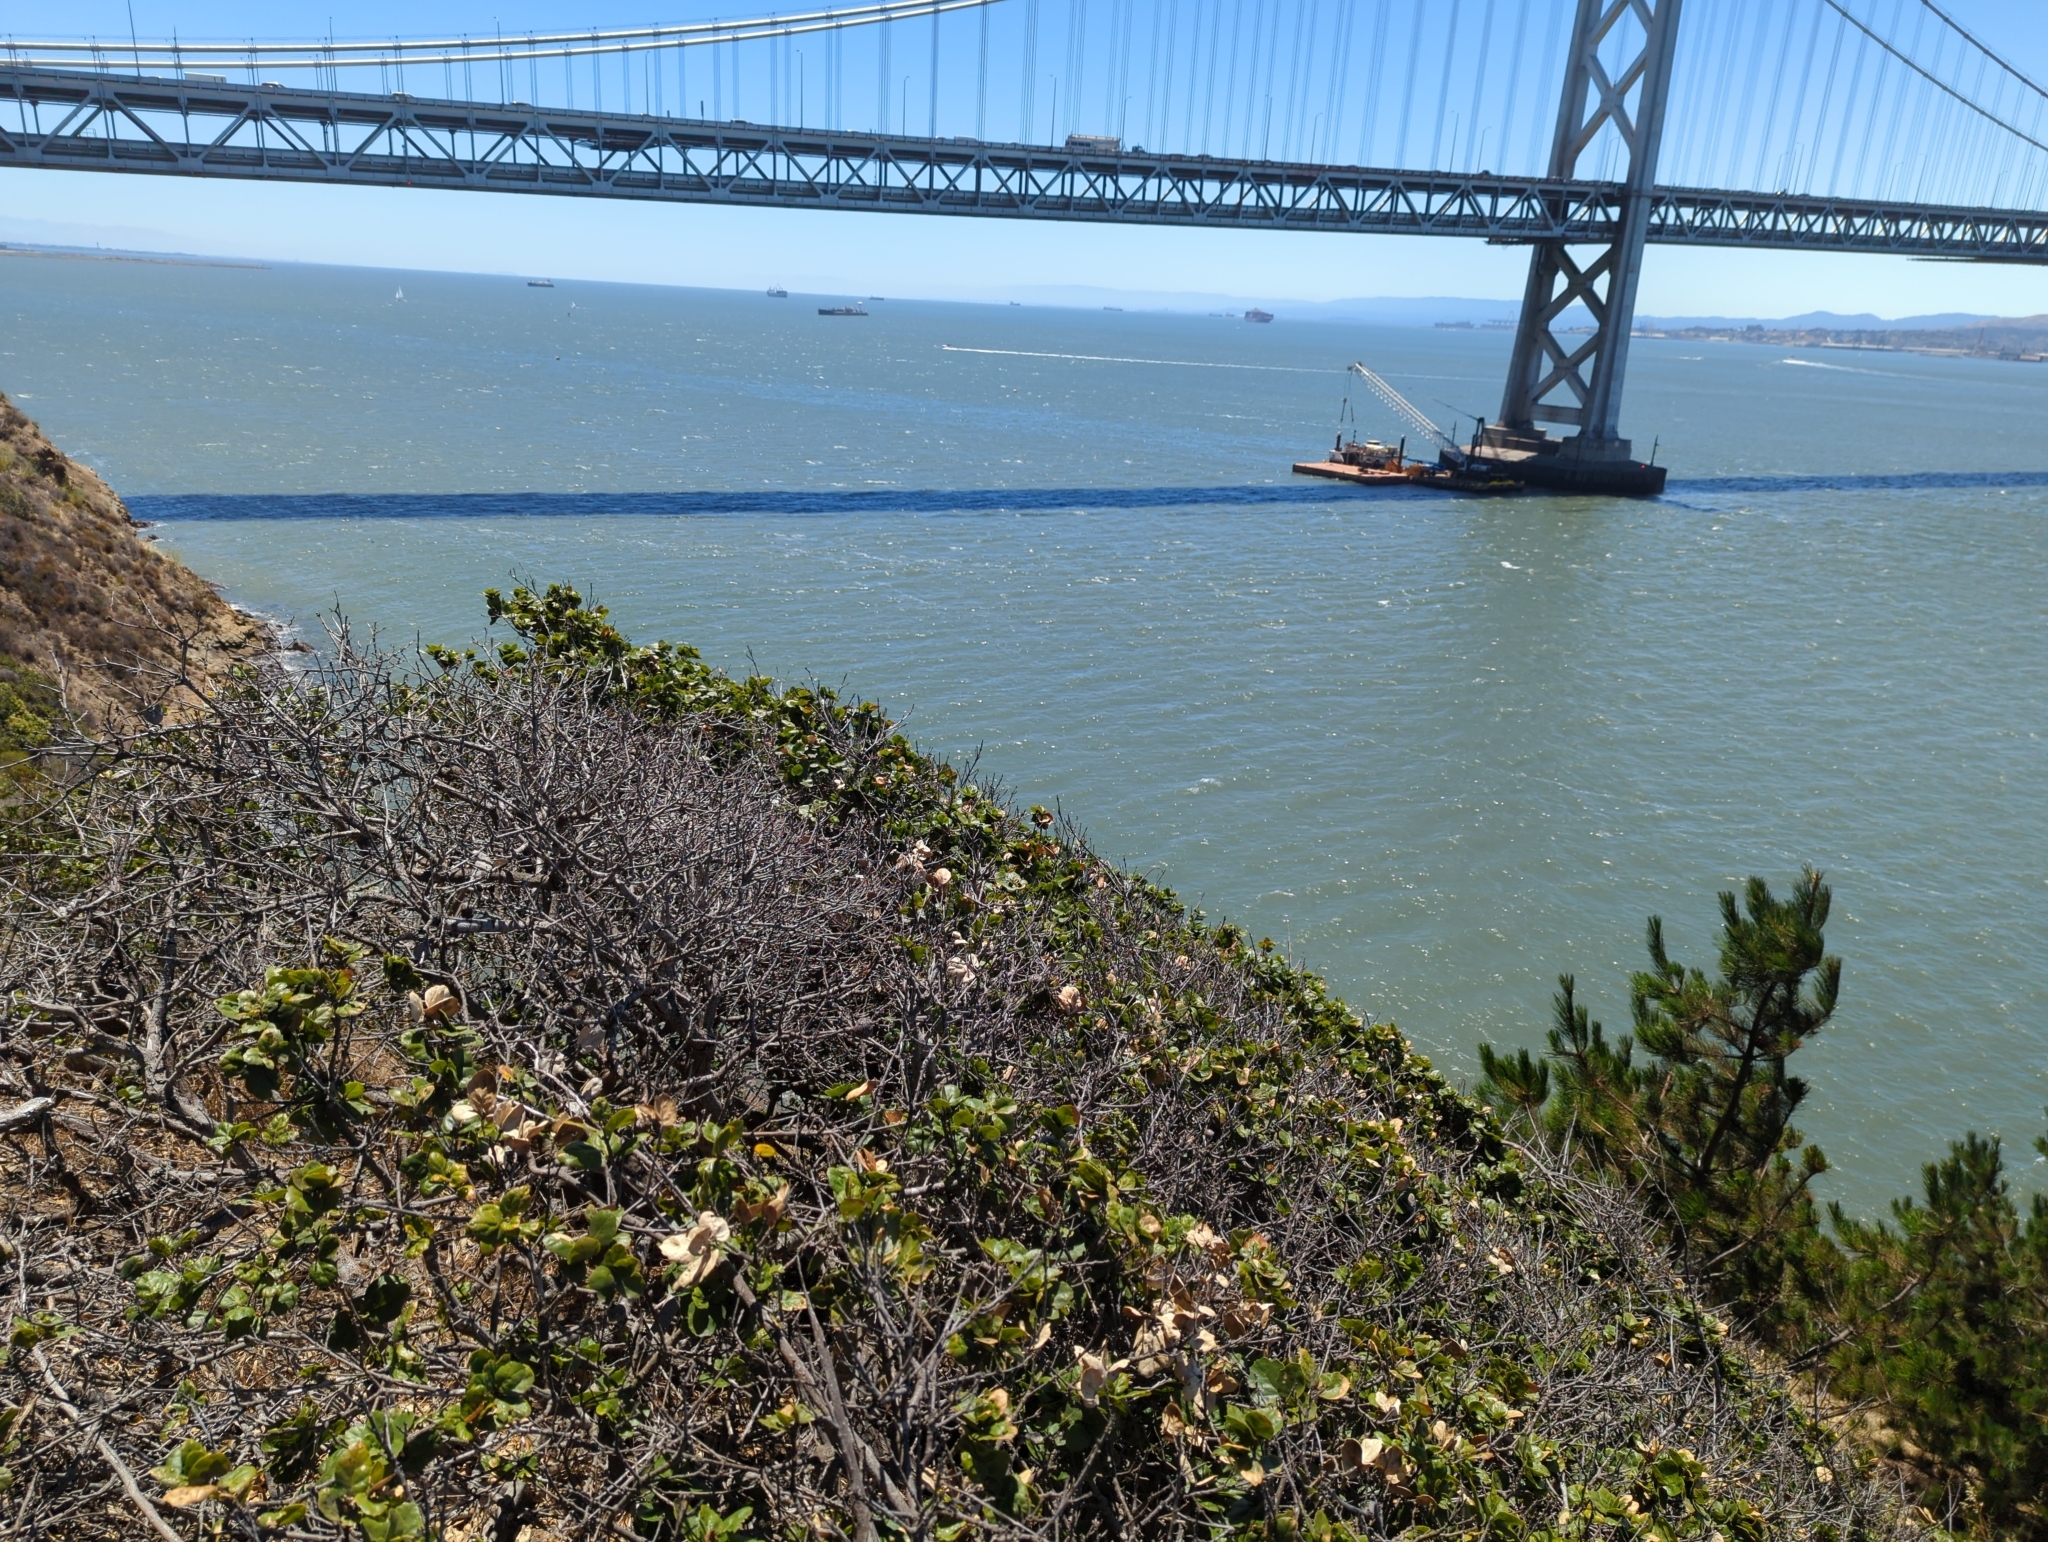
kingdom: Animalia
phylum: Arthropoda
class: Insecta
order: Hymenoptera
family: Cynipidae
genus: Callirhytis
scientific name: Callirhytis
